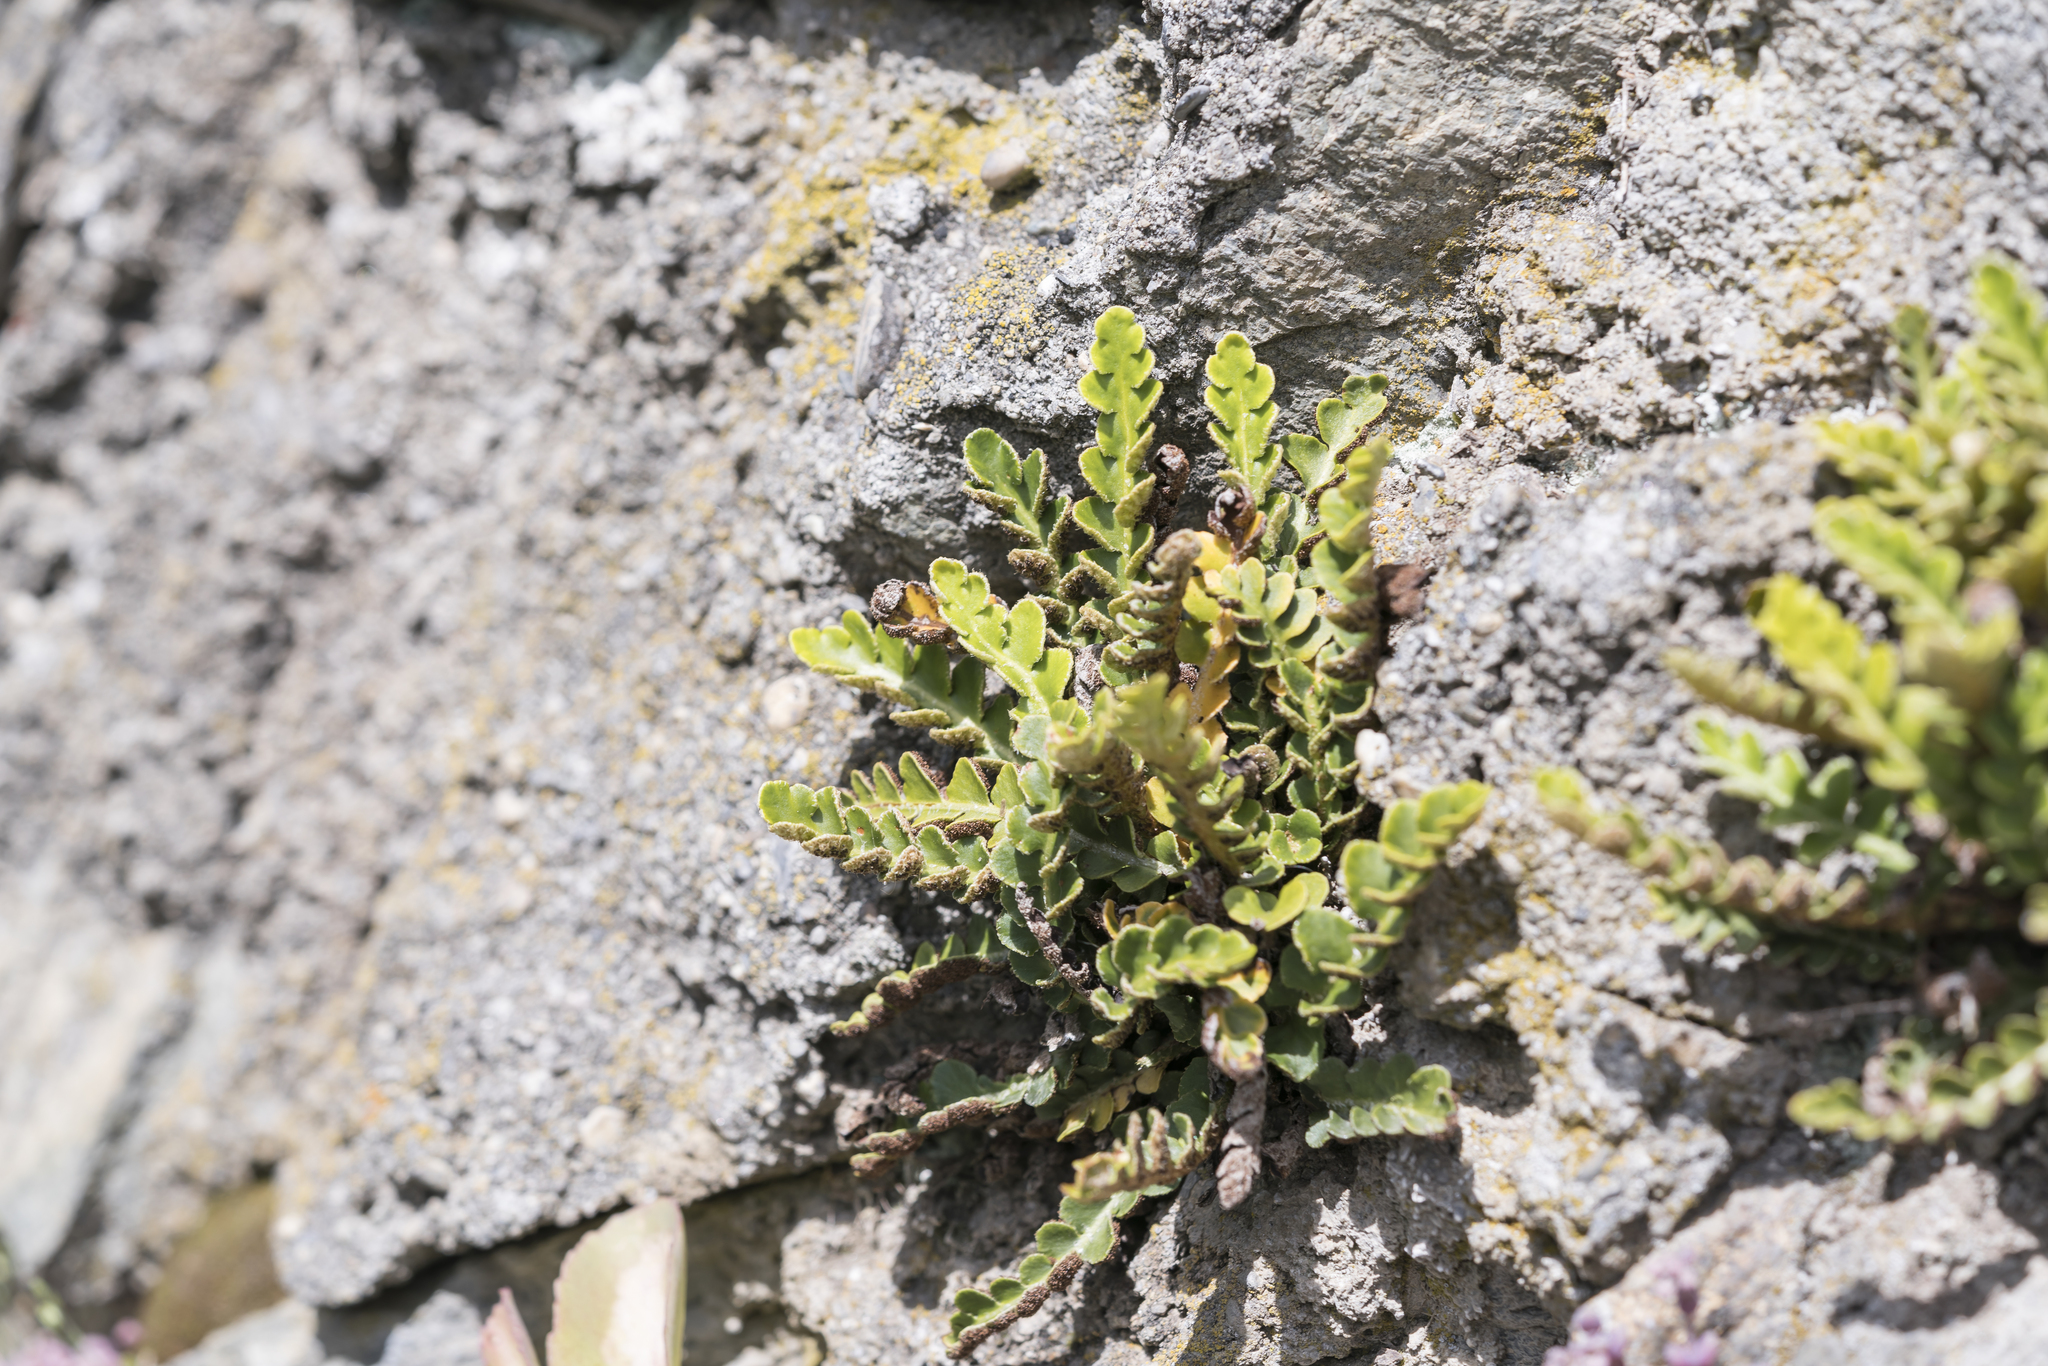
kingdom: Plantae
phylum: Tracheophyta
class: Polypodiopsida
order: Polypodiales
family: Aspleniaceae
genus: Asplenium
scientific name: Asplenium ceterach
